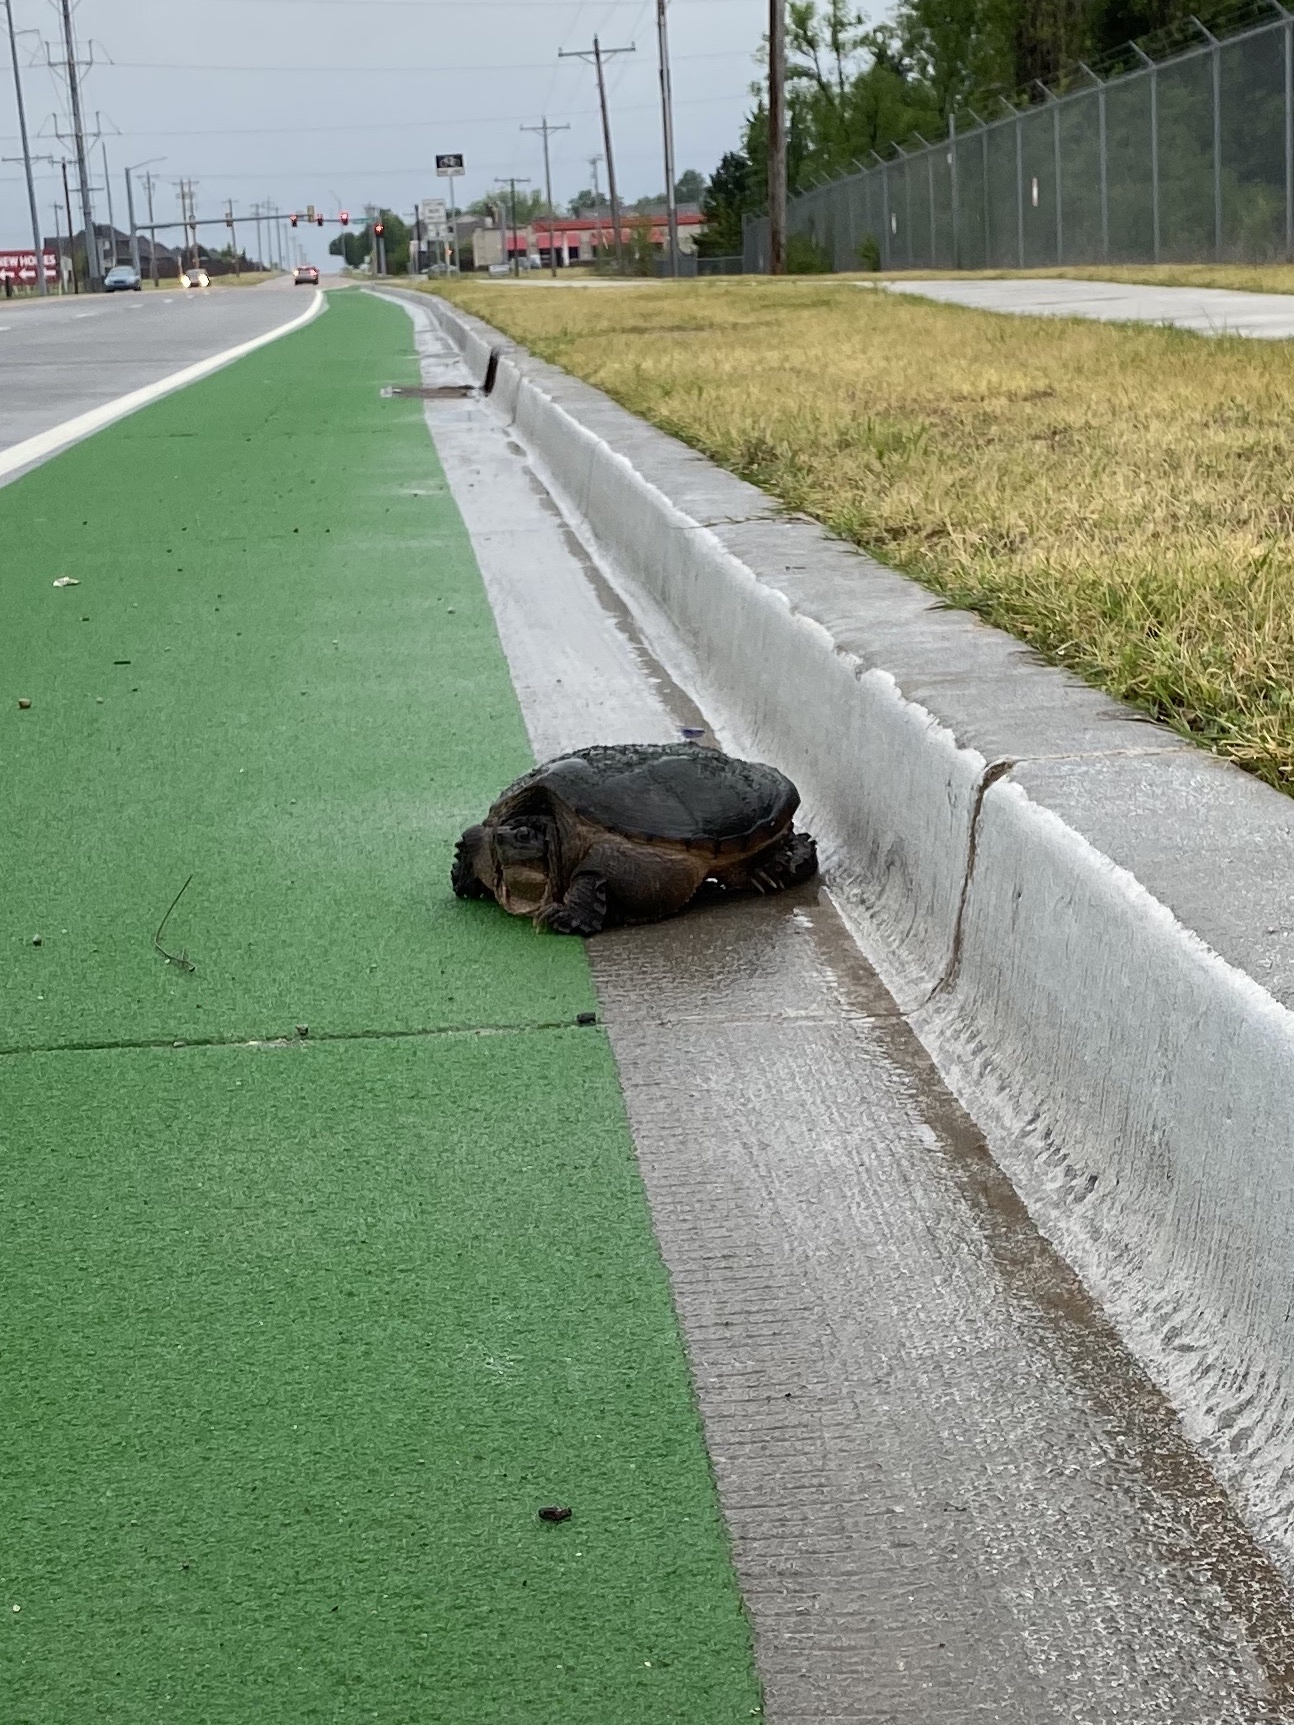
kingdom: Animalia
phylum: Chordata
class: Testudines
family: Chelydridae
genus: Chelydra
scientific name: Chelydra serpentina
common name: Common snapping turtle
